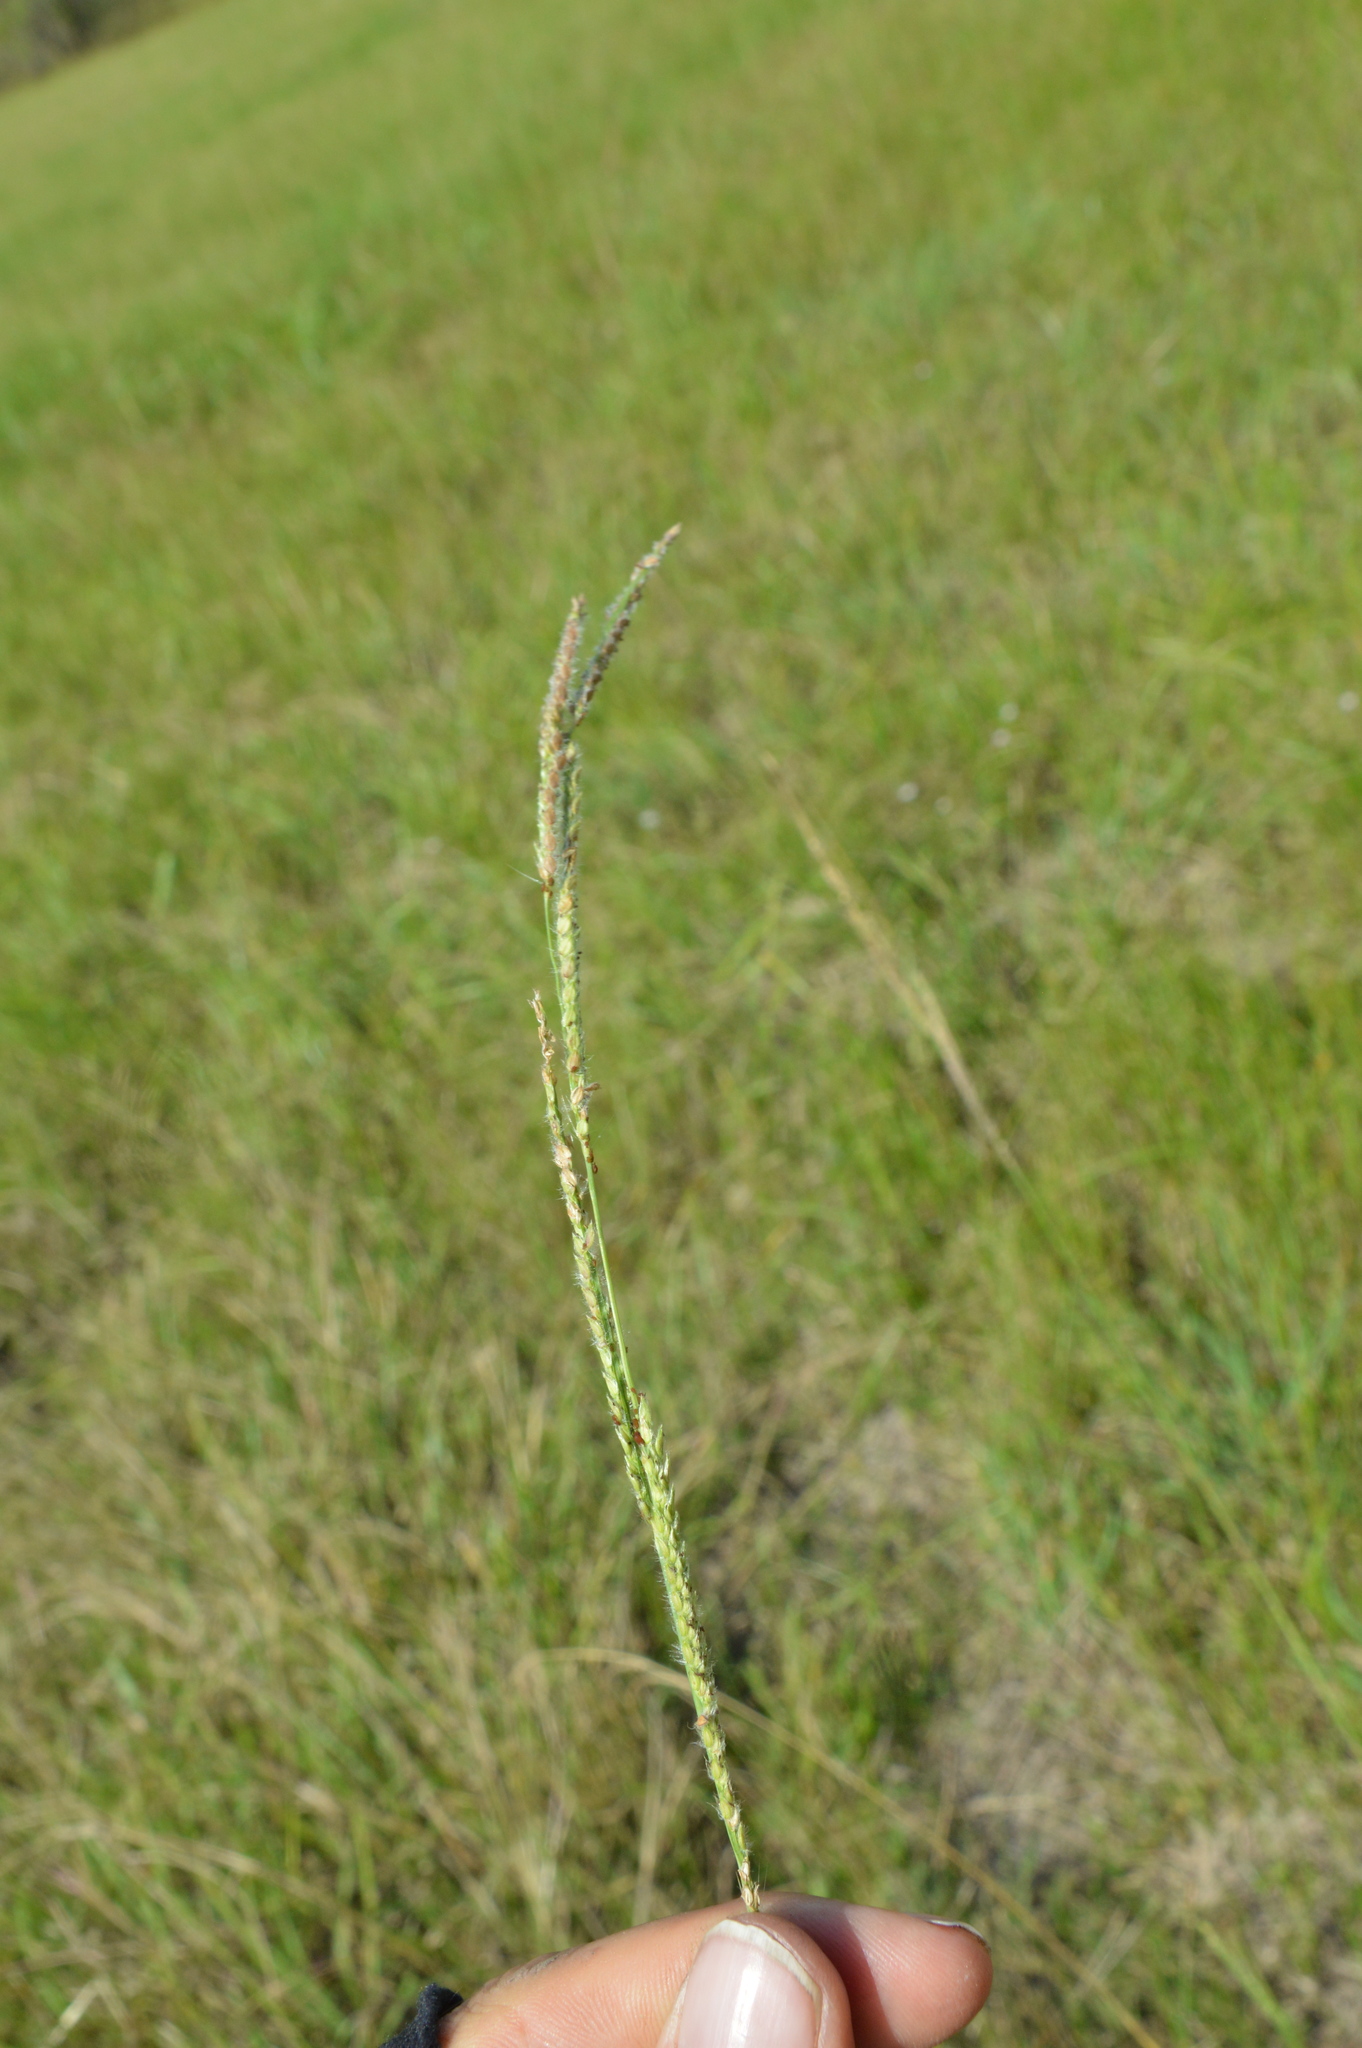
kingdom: Plantae
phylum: Tracheophyta
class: Liliopsida
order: Poales
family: Poaceae
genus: Paspalum
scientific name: Paspalum urvillei
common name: Vasey's grass
